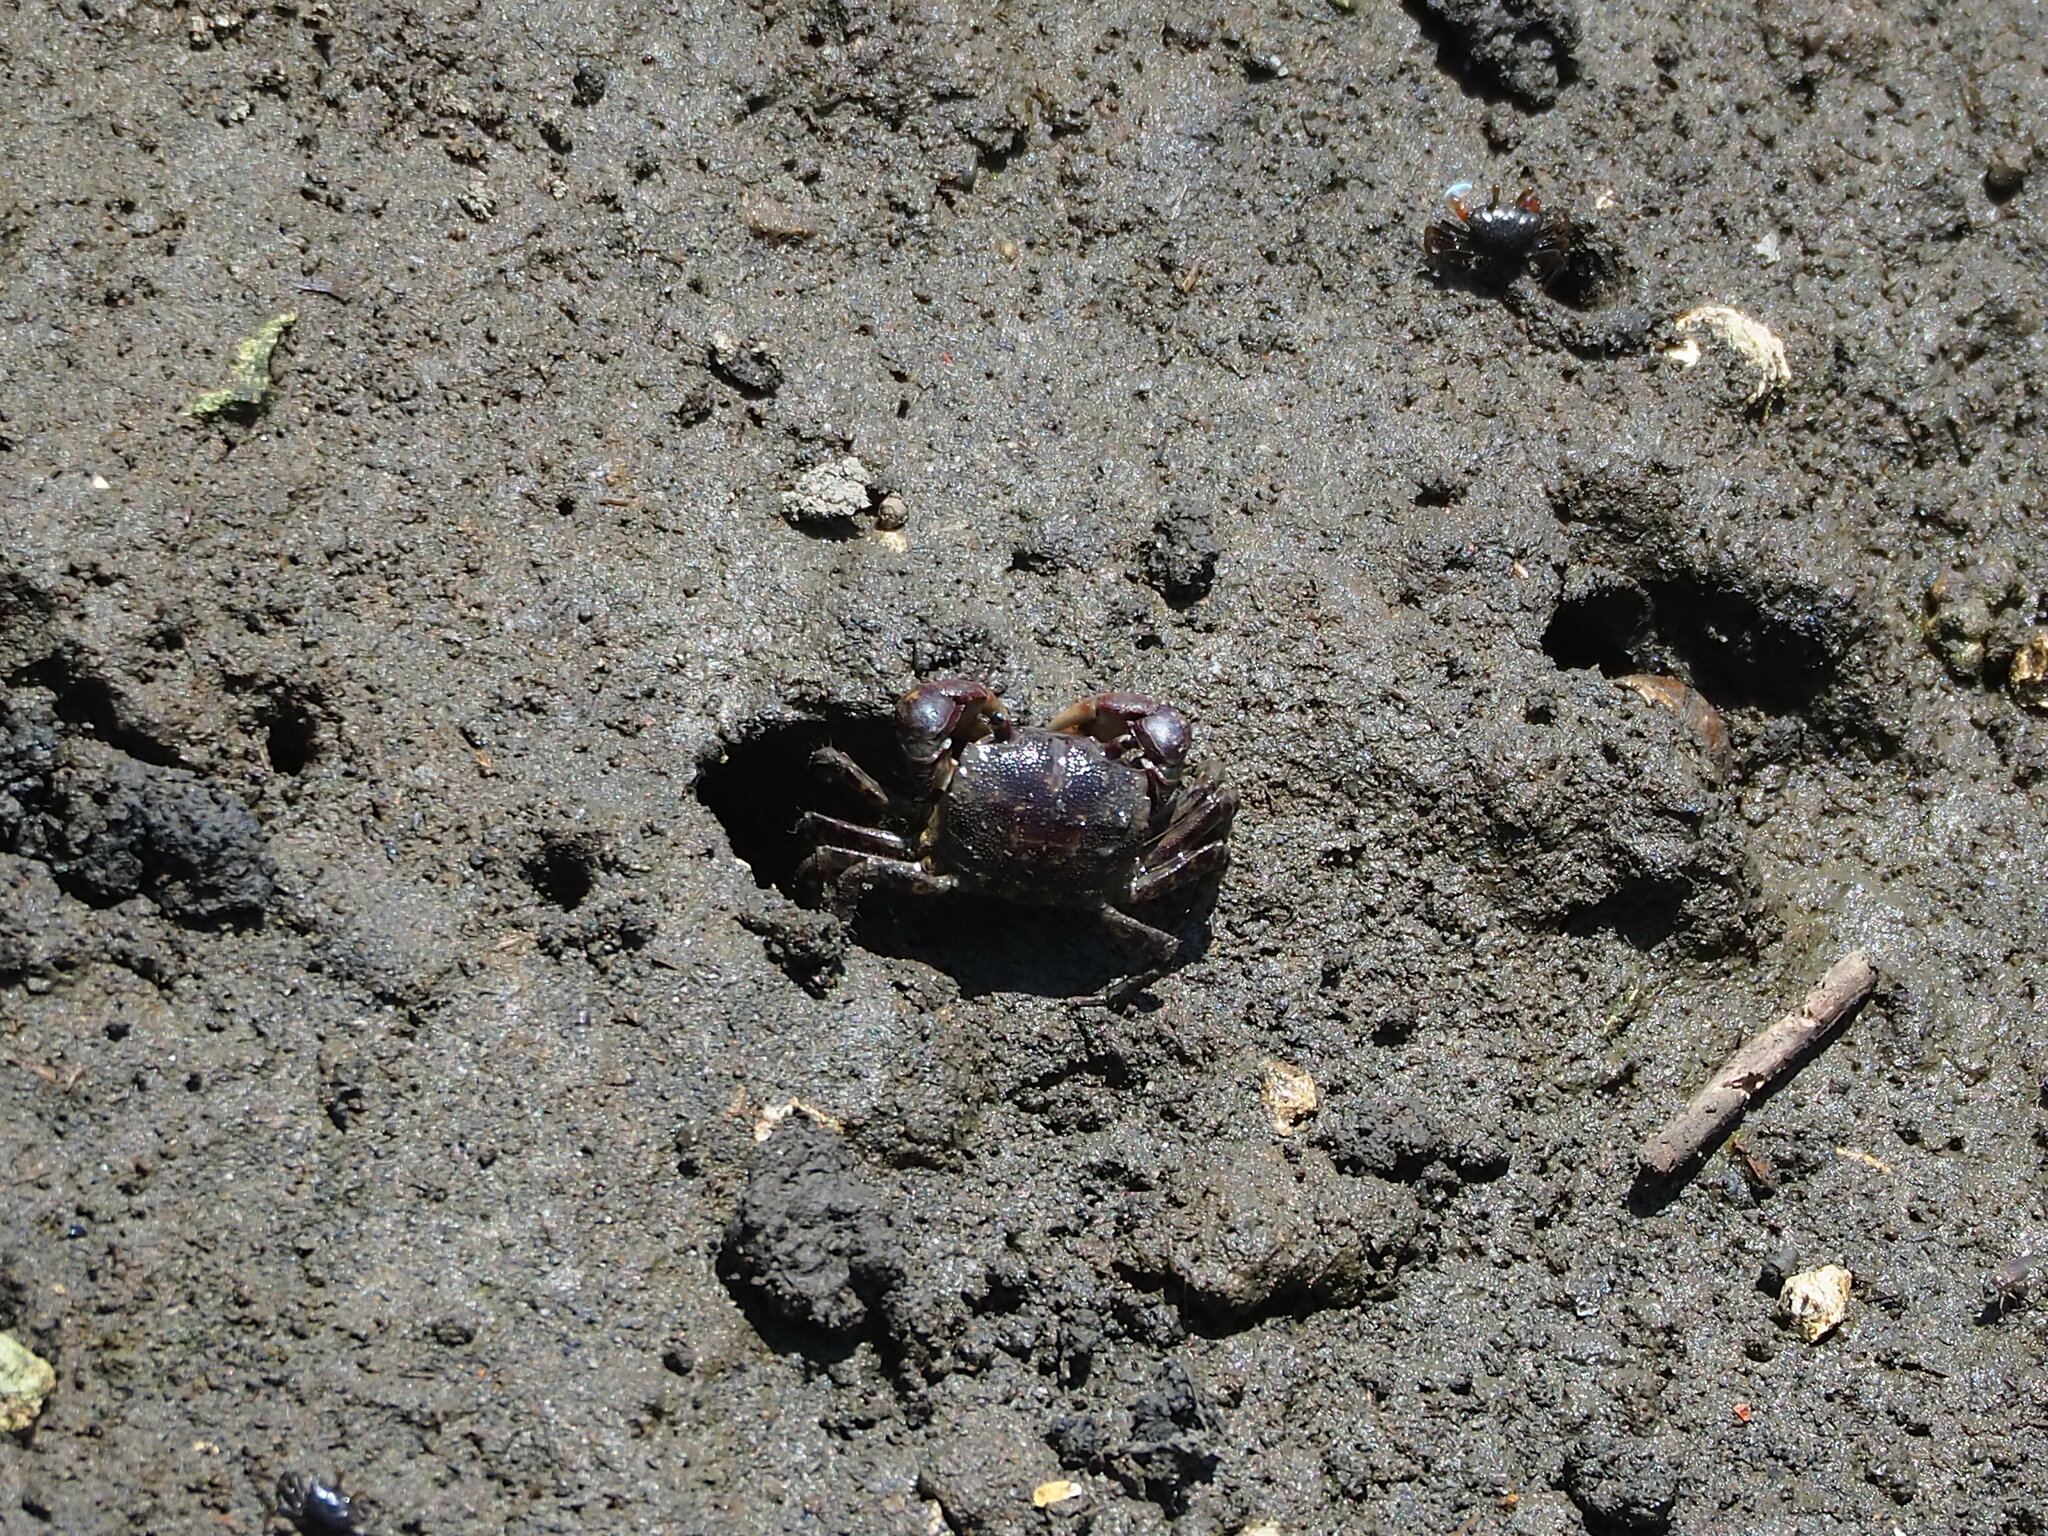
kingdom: Animalia
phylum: Arthropoda
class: Malacostraca
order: Decapoda
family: Varunidae
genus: Pseudohelice
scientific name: Pseudohelice subquadrata
